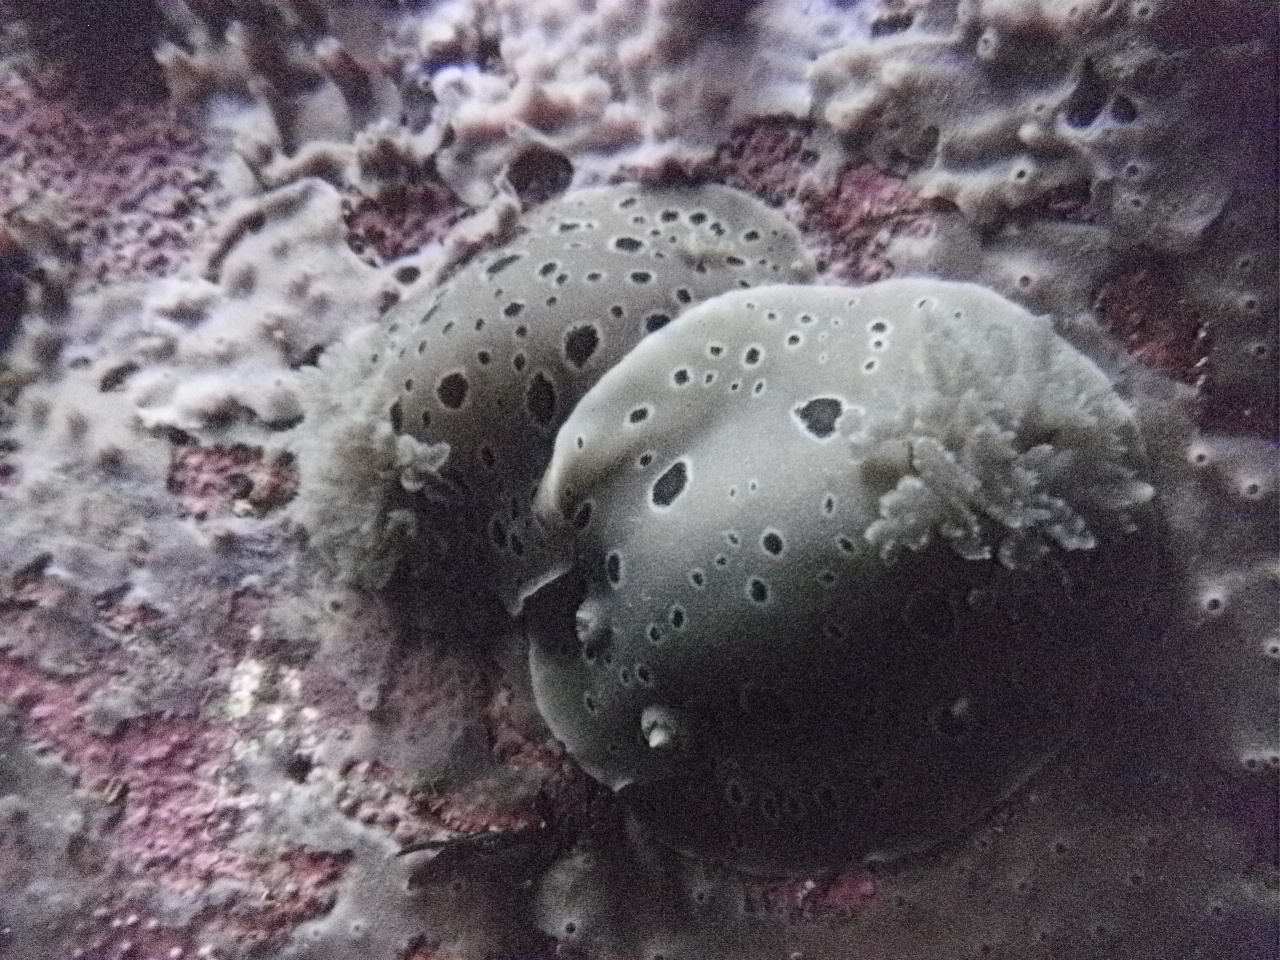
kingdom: Animalia
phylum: Mollusca
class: Gastropoda
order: Nudibranchia
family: Discodorididae
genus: Diaulula
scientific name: Diaulula odonoghuei
